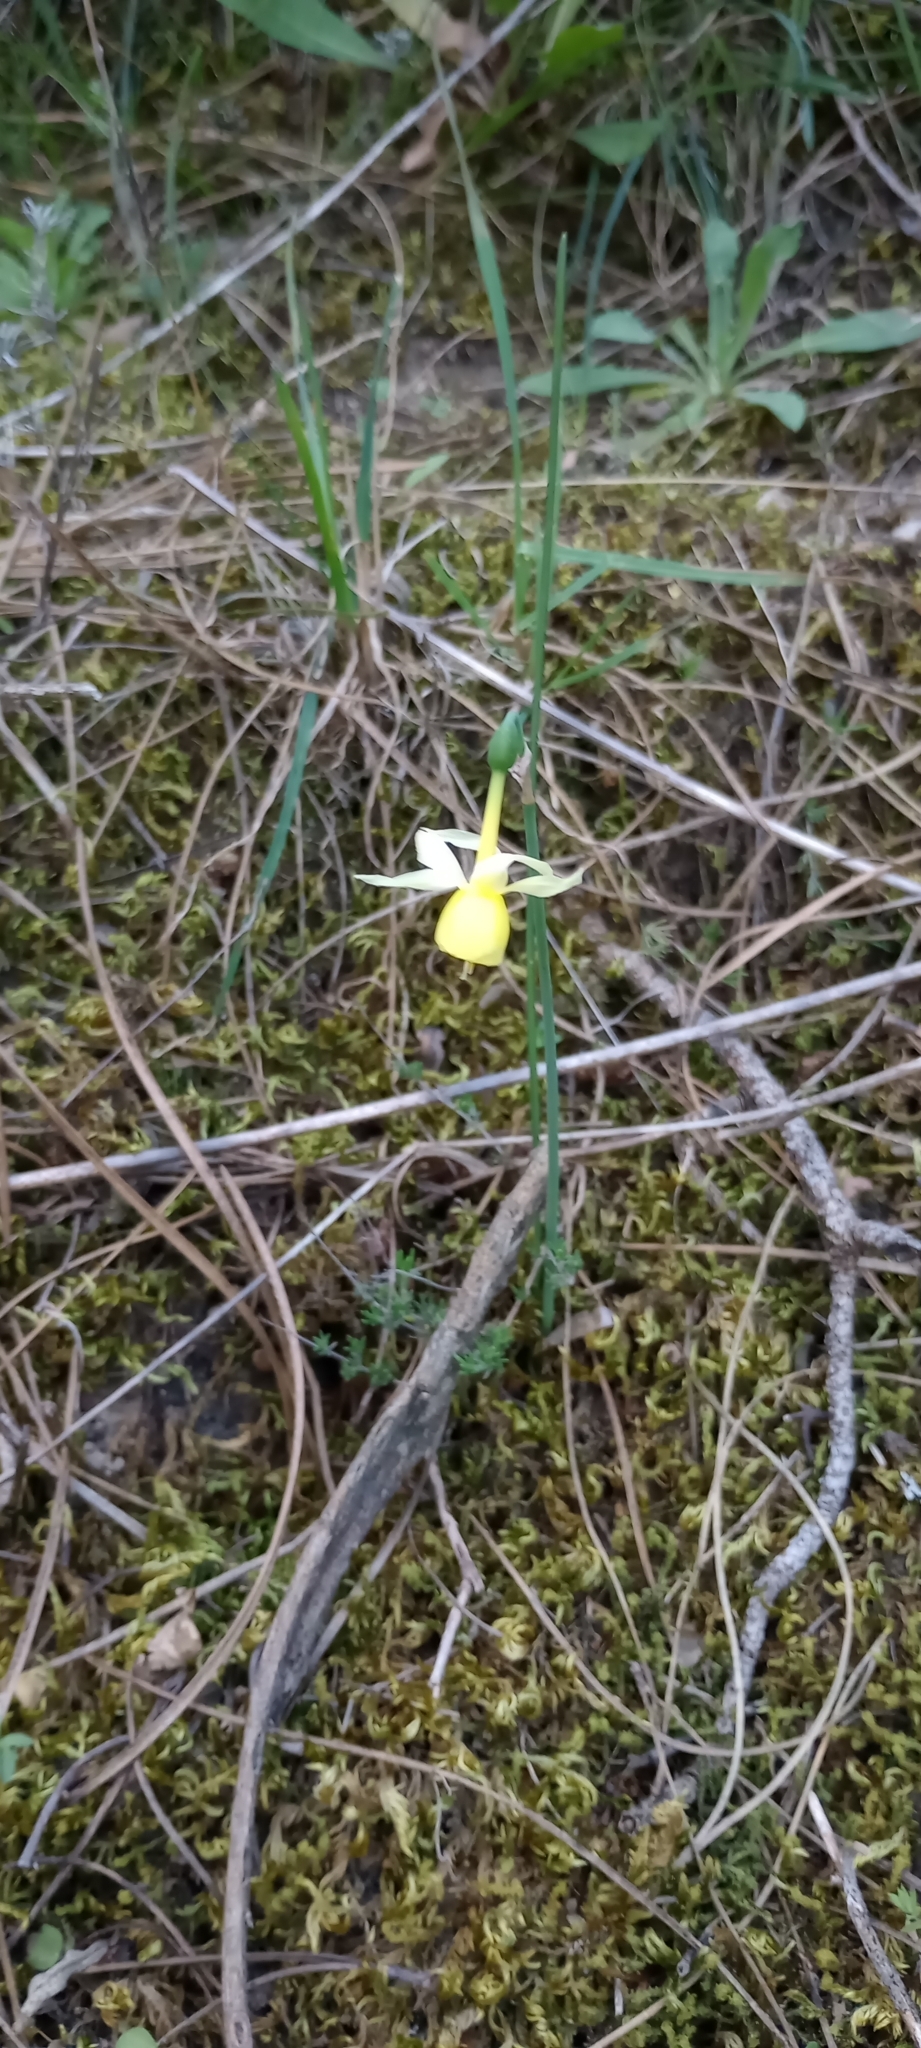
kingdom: Plantae
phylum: Tracheophyta
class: Liliopsida
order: Asparagales
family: Amaryllidaceae
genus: Narcissus
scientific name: Narcissus triandrus
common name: Angel's-tears
